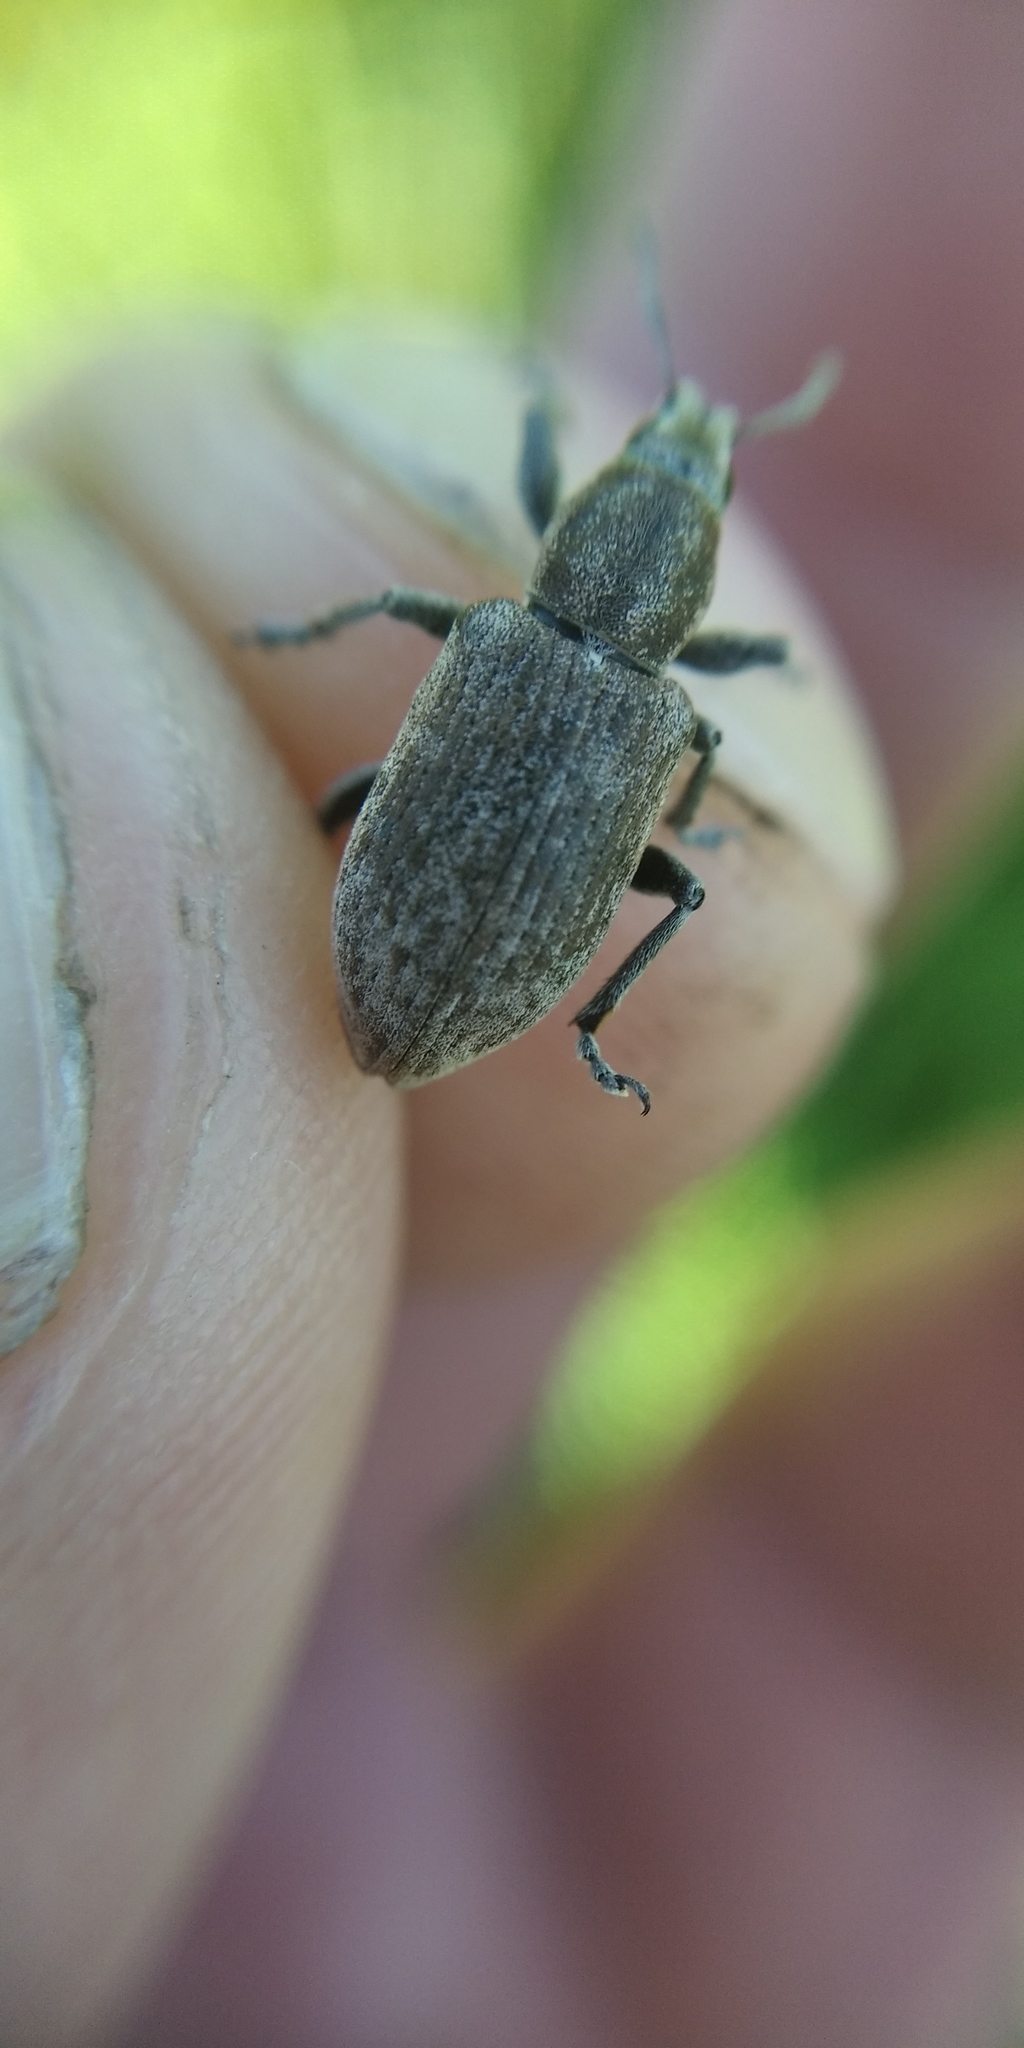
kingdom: Animalia
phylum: Arthropoda
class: Insecta
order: Coleoptera
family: Curculionidae
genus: Tanymecus
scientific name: Tanymecus palliatus
